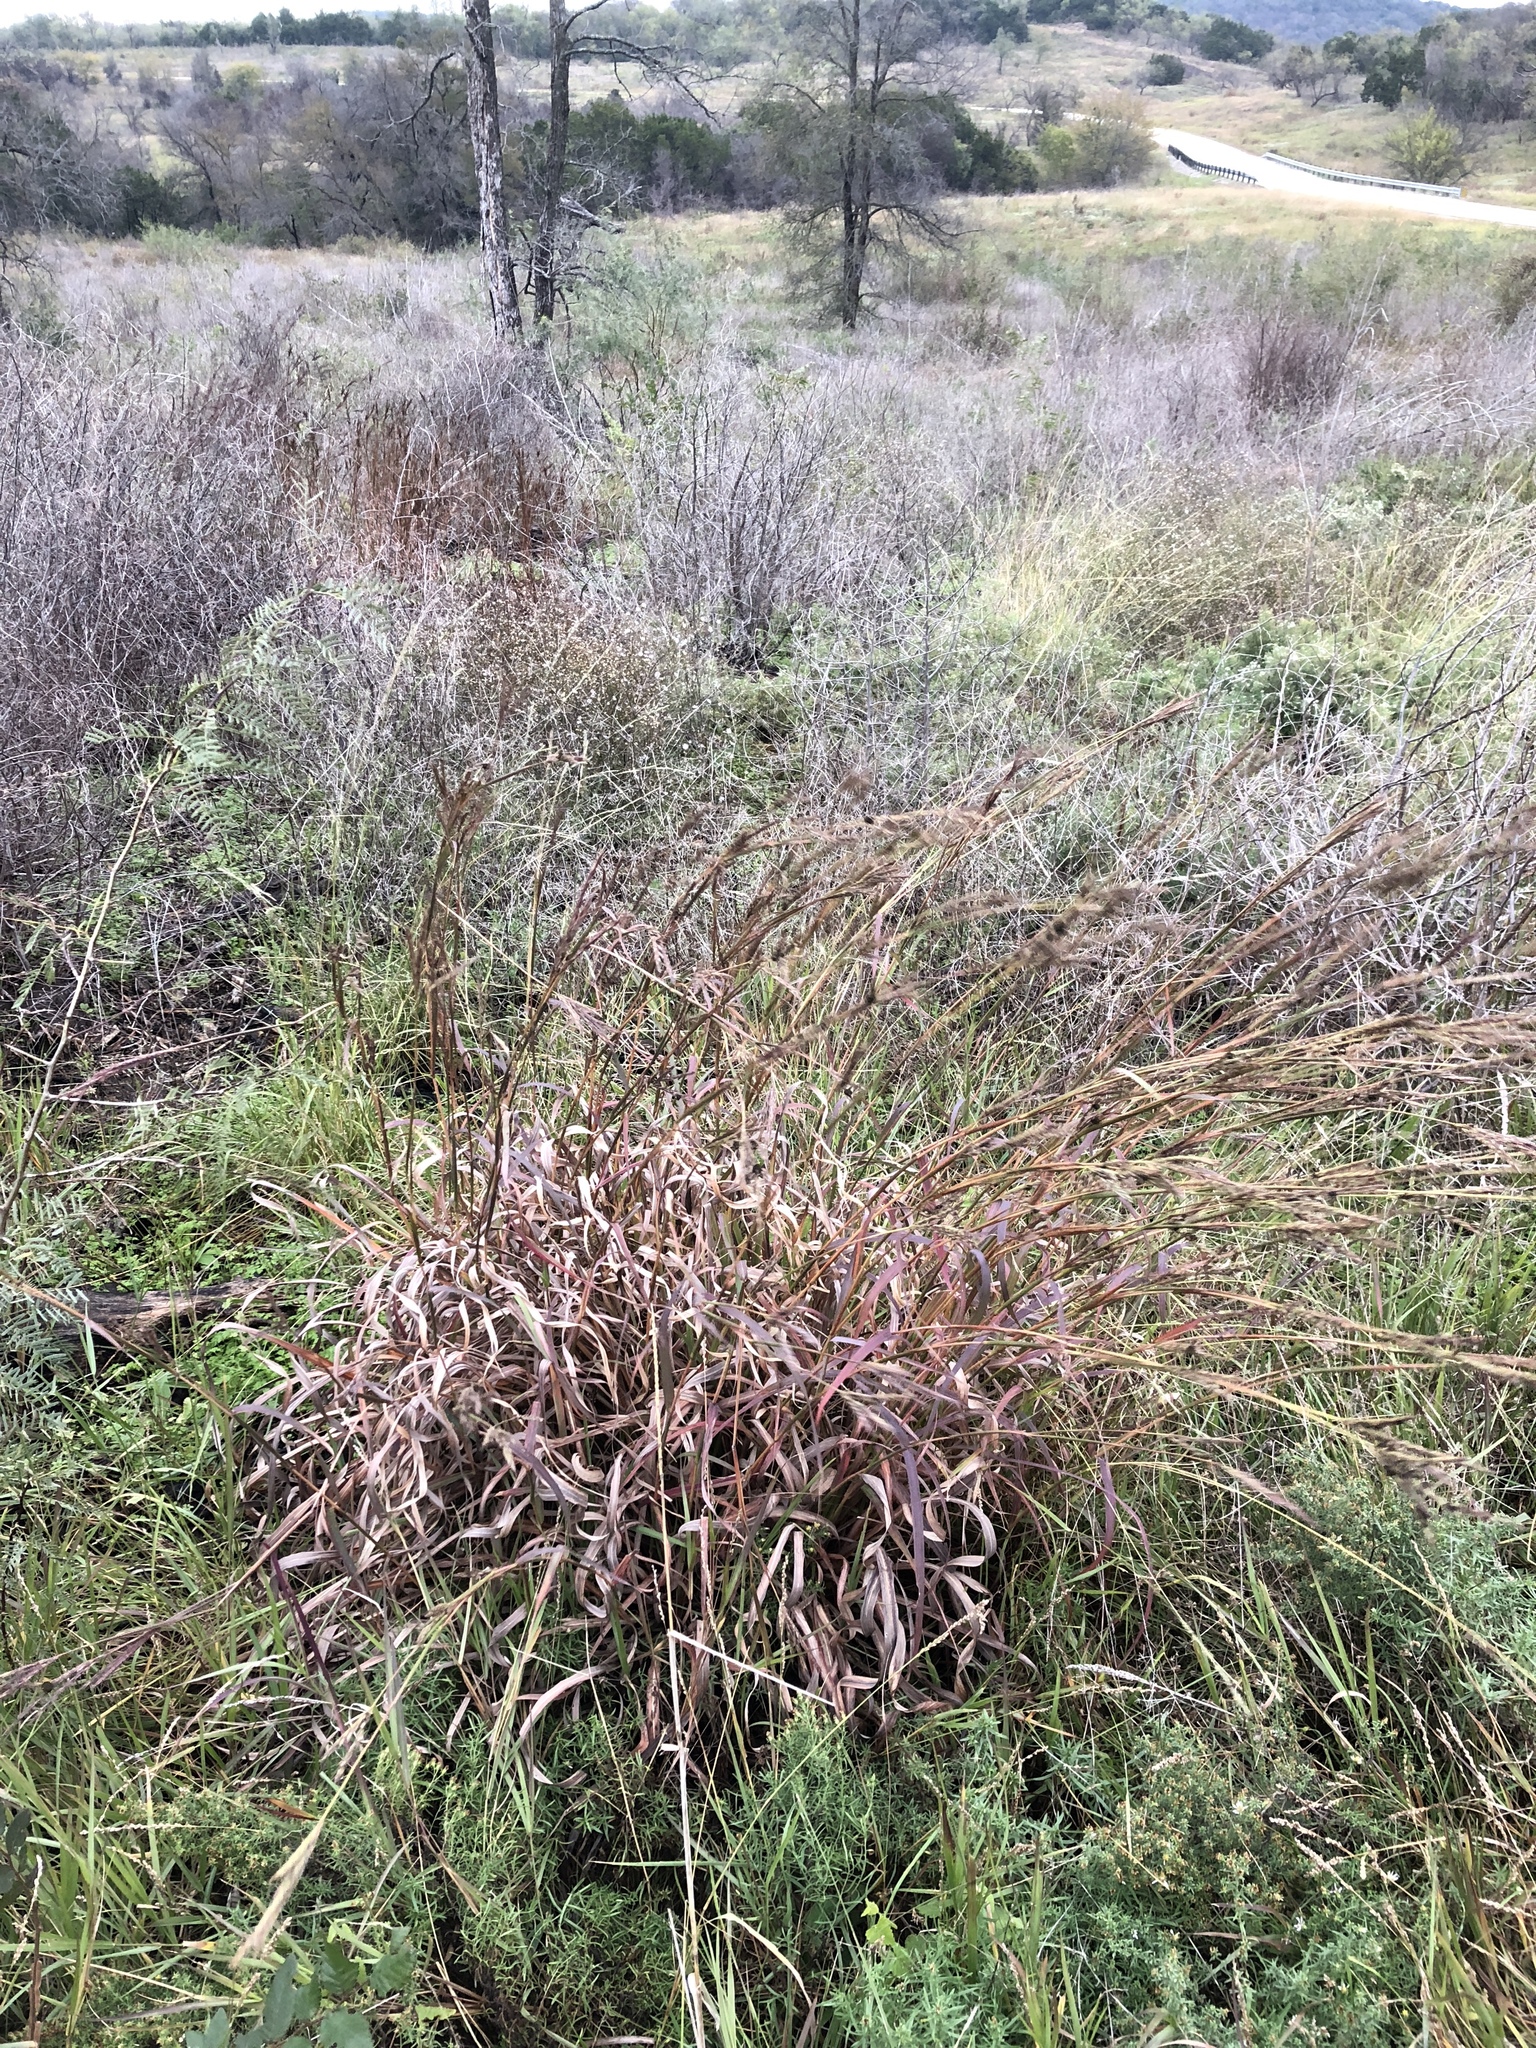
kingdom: Plantae
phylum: Tracheophyta
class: Liliopsida
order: Poales
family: Poaceae
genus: Andropogon
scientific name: Andropogon gerardi
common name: Big bluestem
